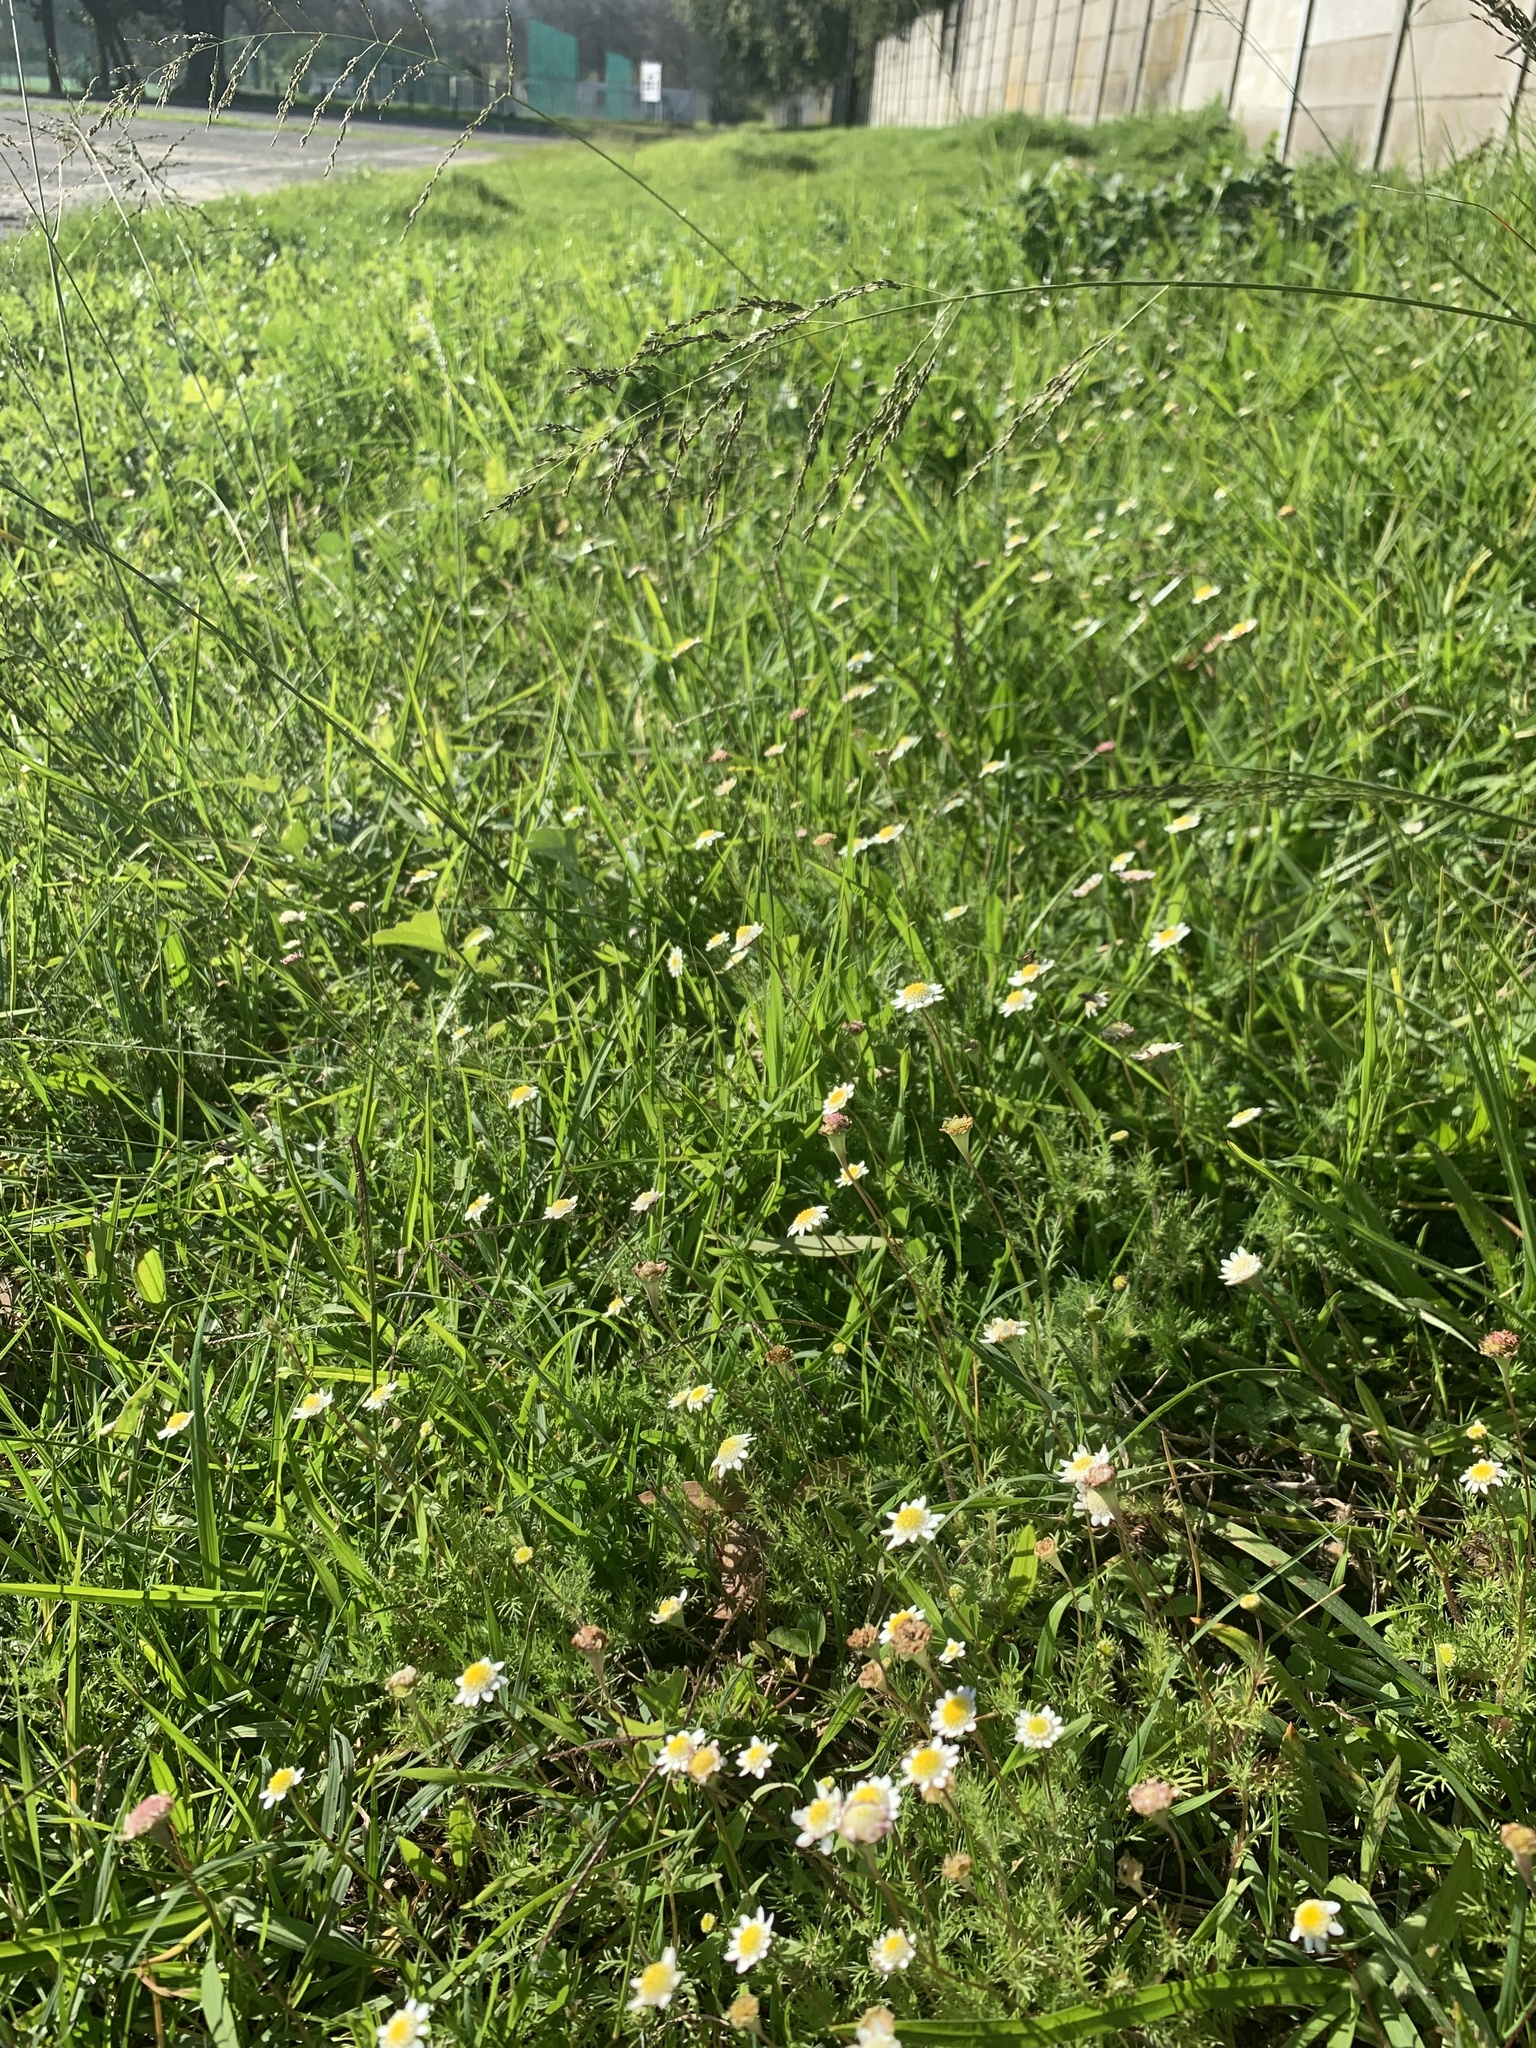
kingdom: Plantae
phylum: Tracheophyta
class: Magnoliopsida
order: Asterales
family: Asteraceae
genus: Cotula
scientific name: Cotula turbinata
